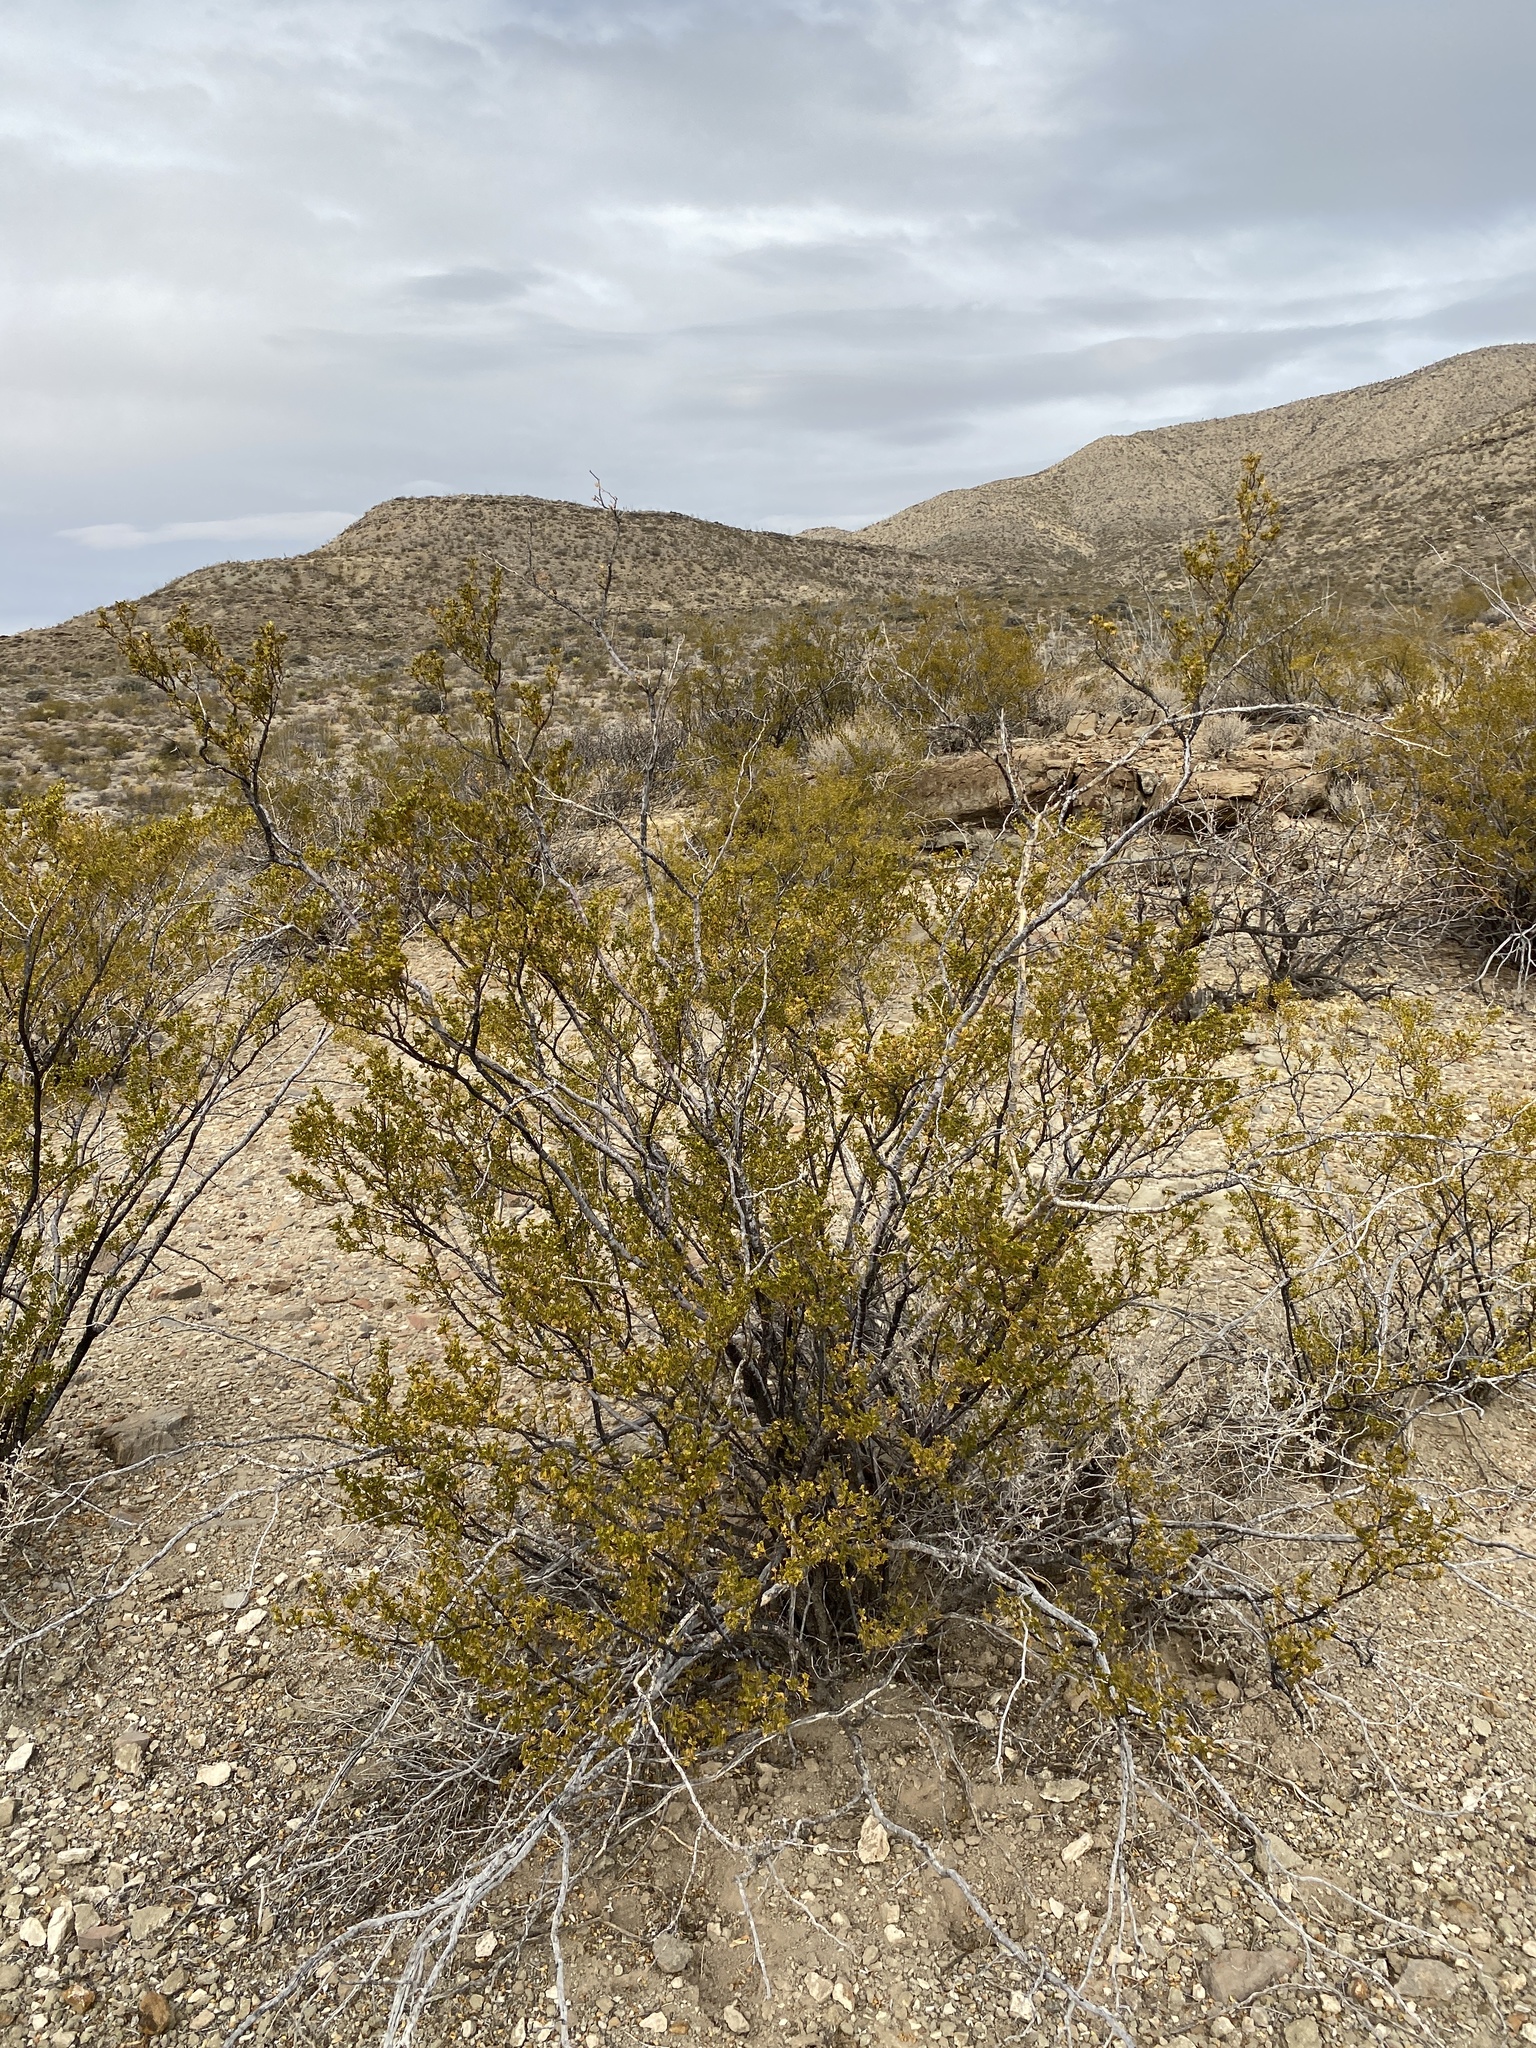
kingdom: Plantae
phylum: Tracheophyta
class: Magnoliopsida
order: Zygophyllales
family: Zygophyllaceae
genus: Larrea
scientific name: Larrea tridentata
